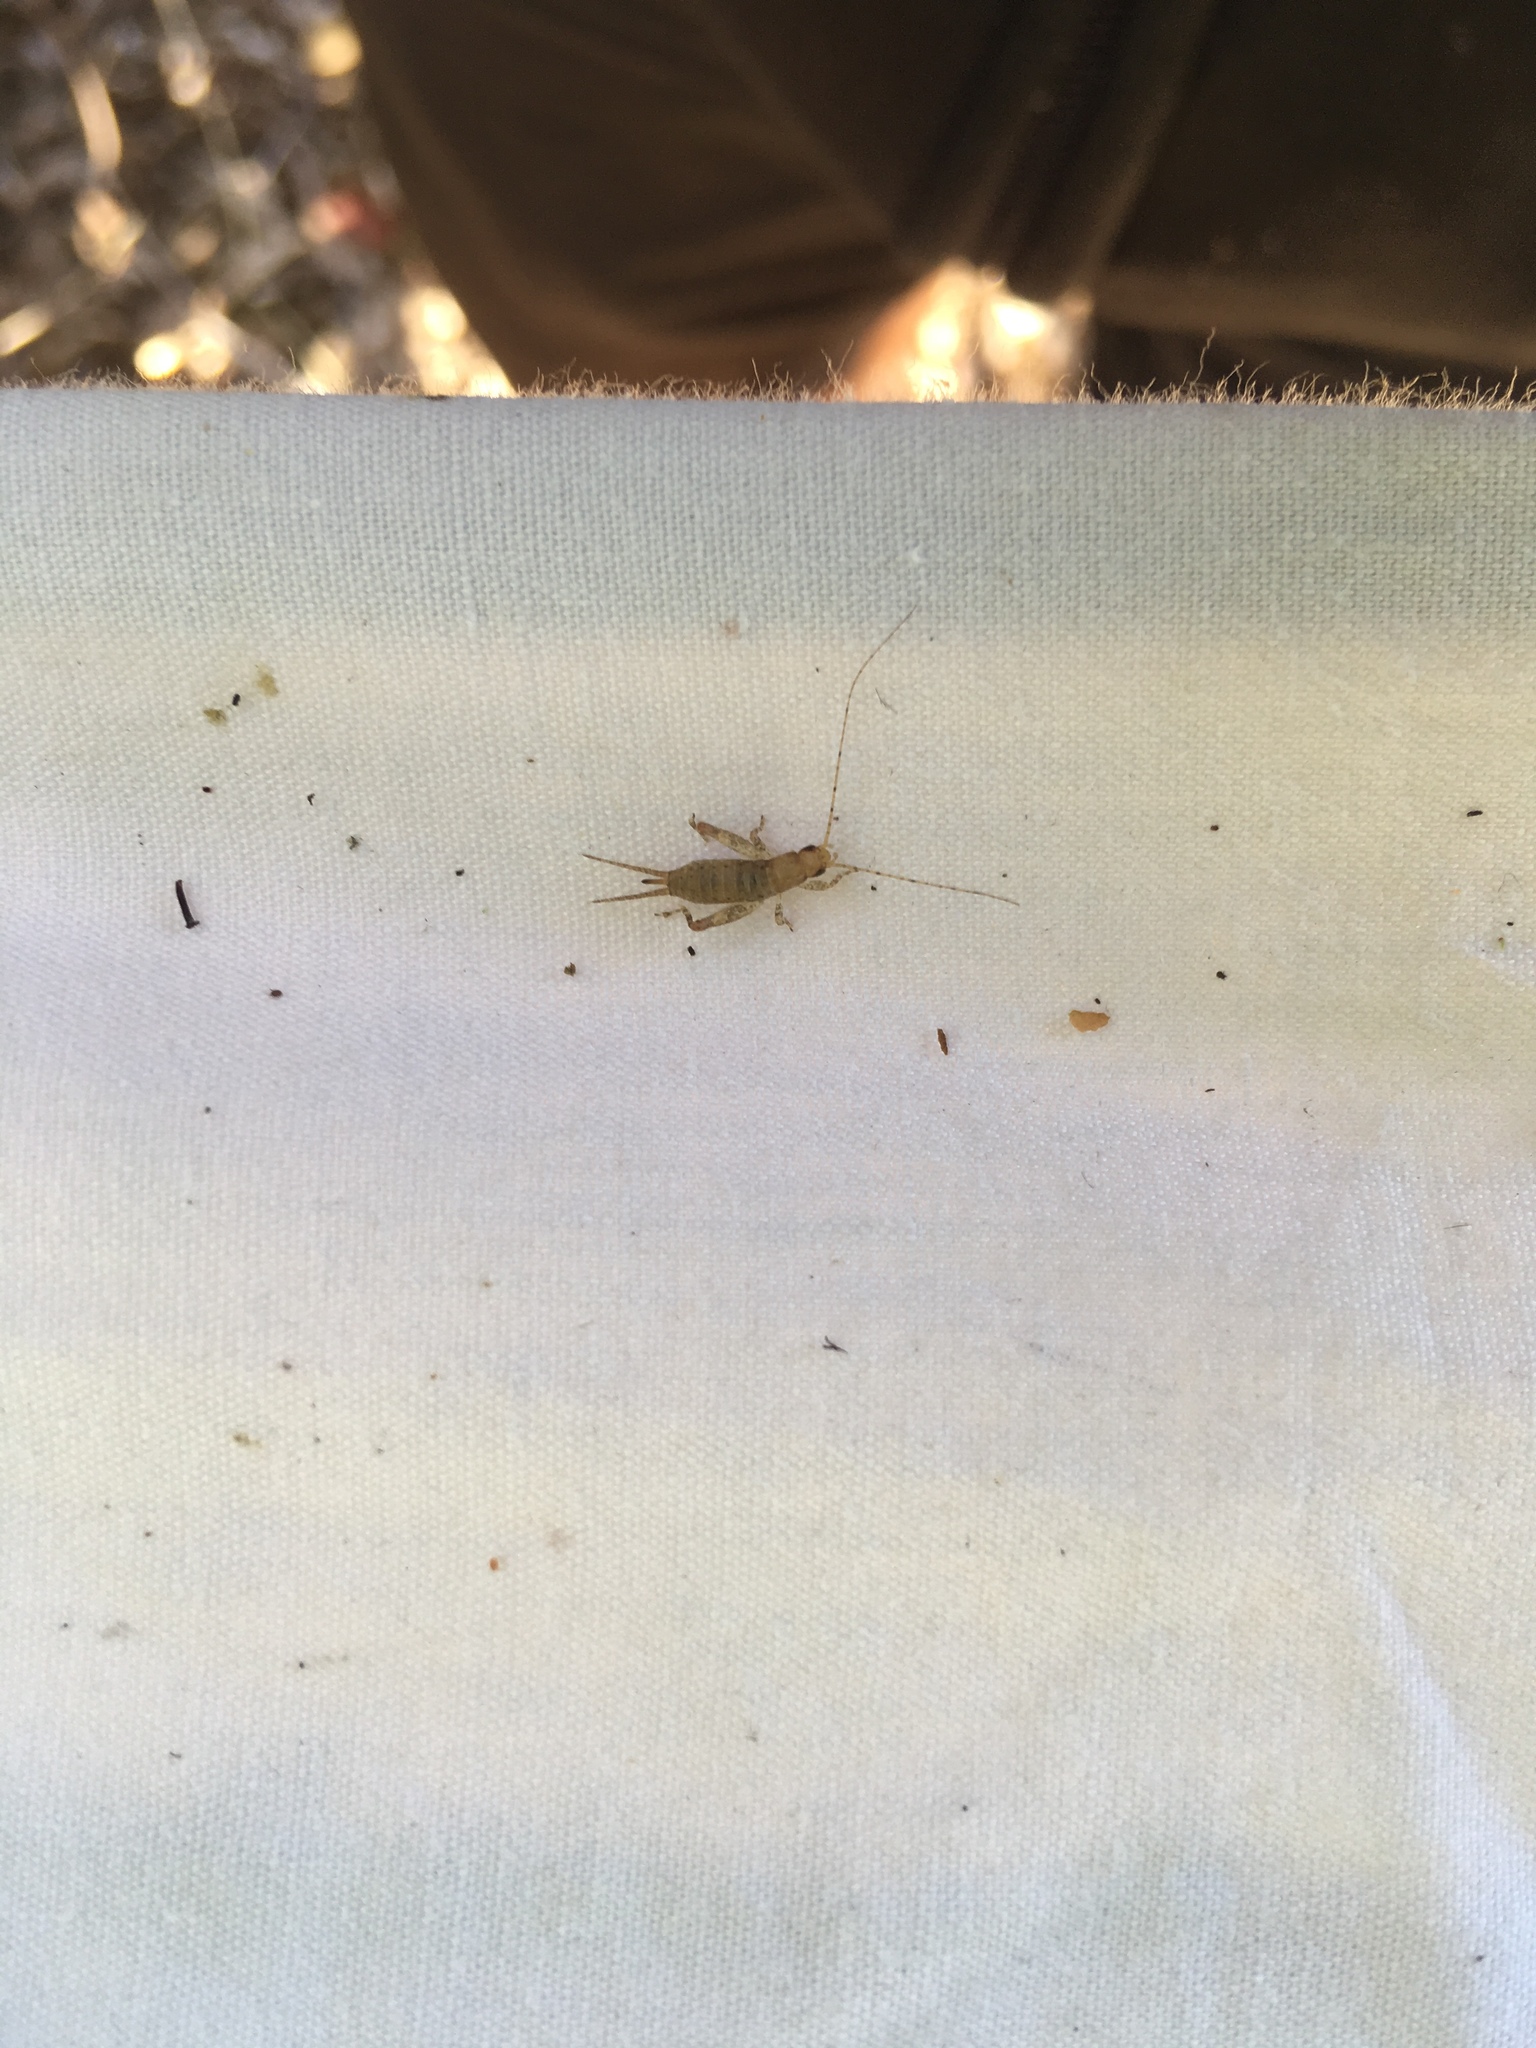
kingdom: Animalia
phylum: Arthropoda
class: Insecta
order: Orthoptera
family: Mogoplistidae
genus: Ornebius
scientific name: Ornebius aperta
